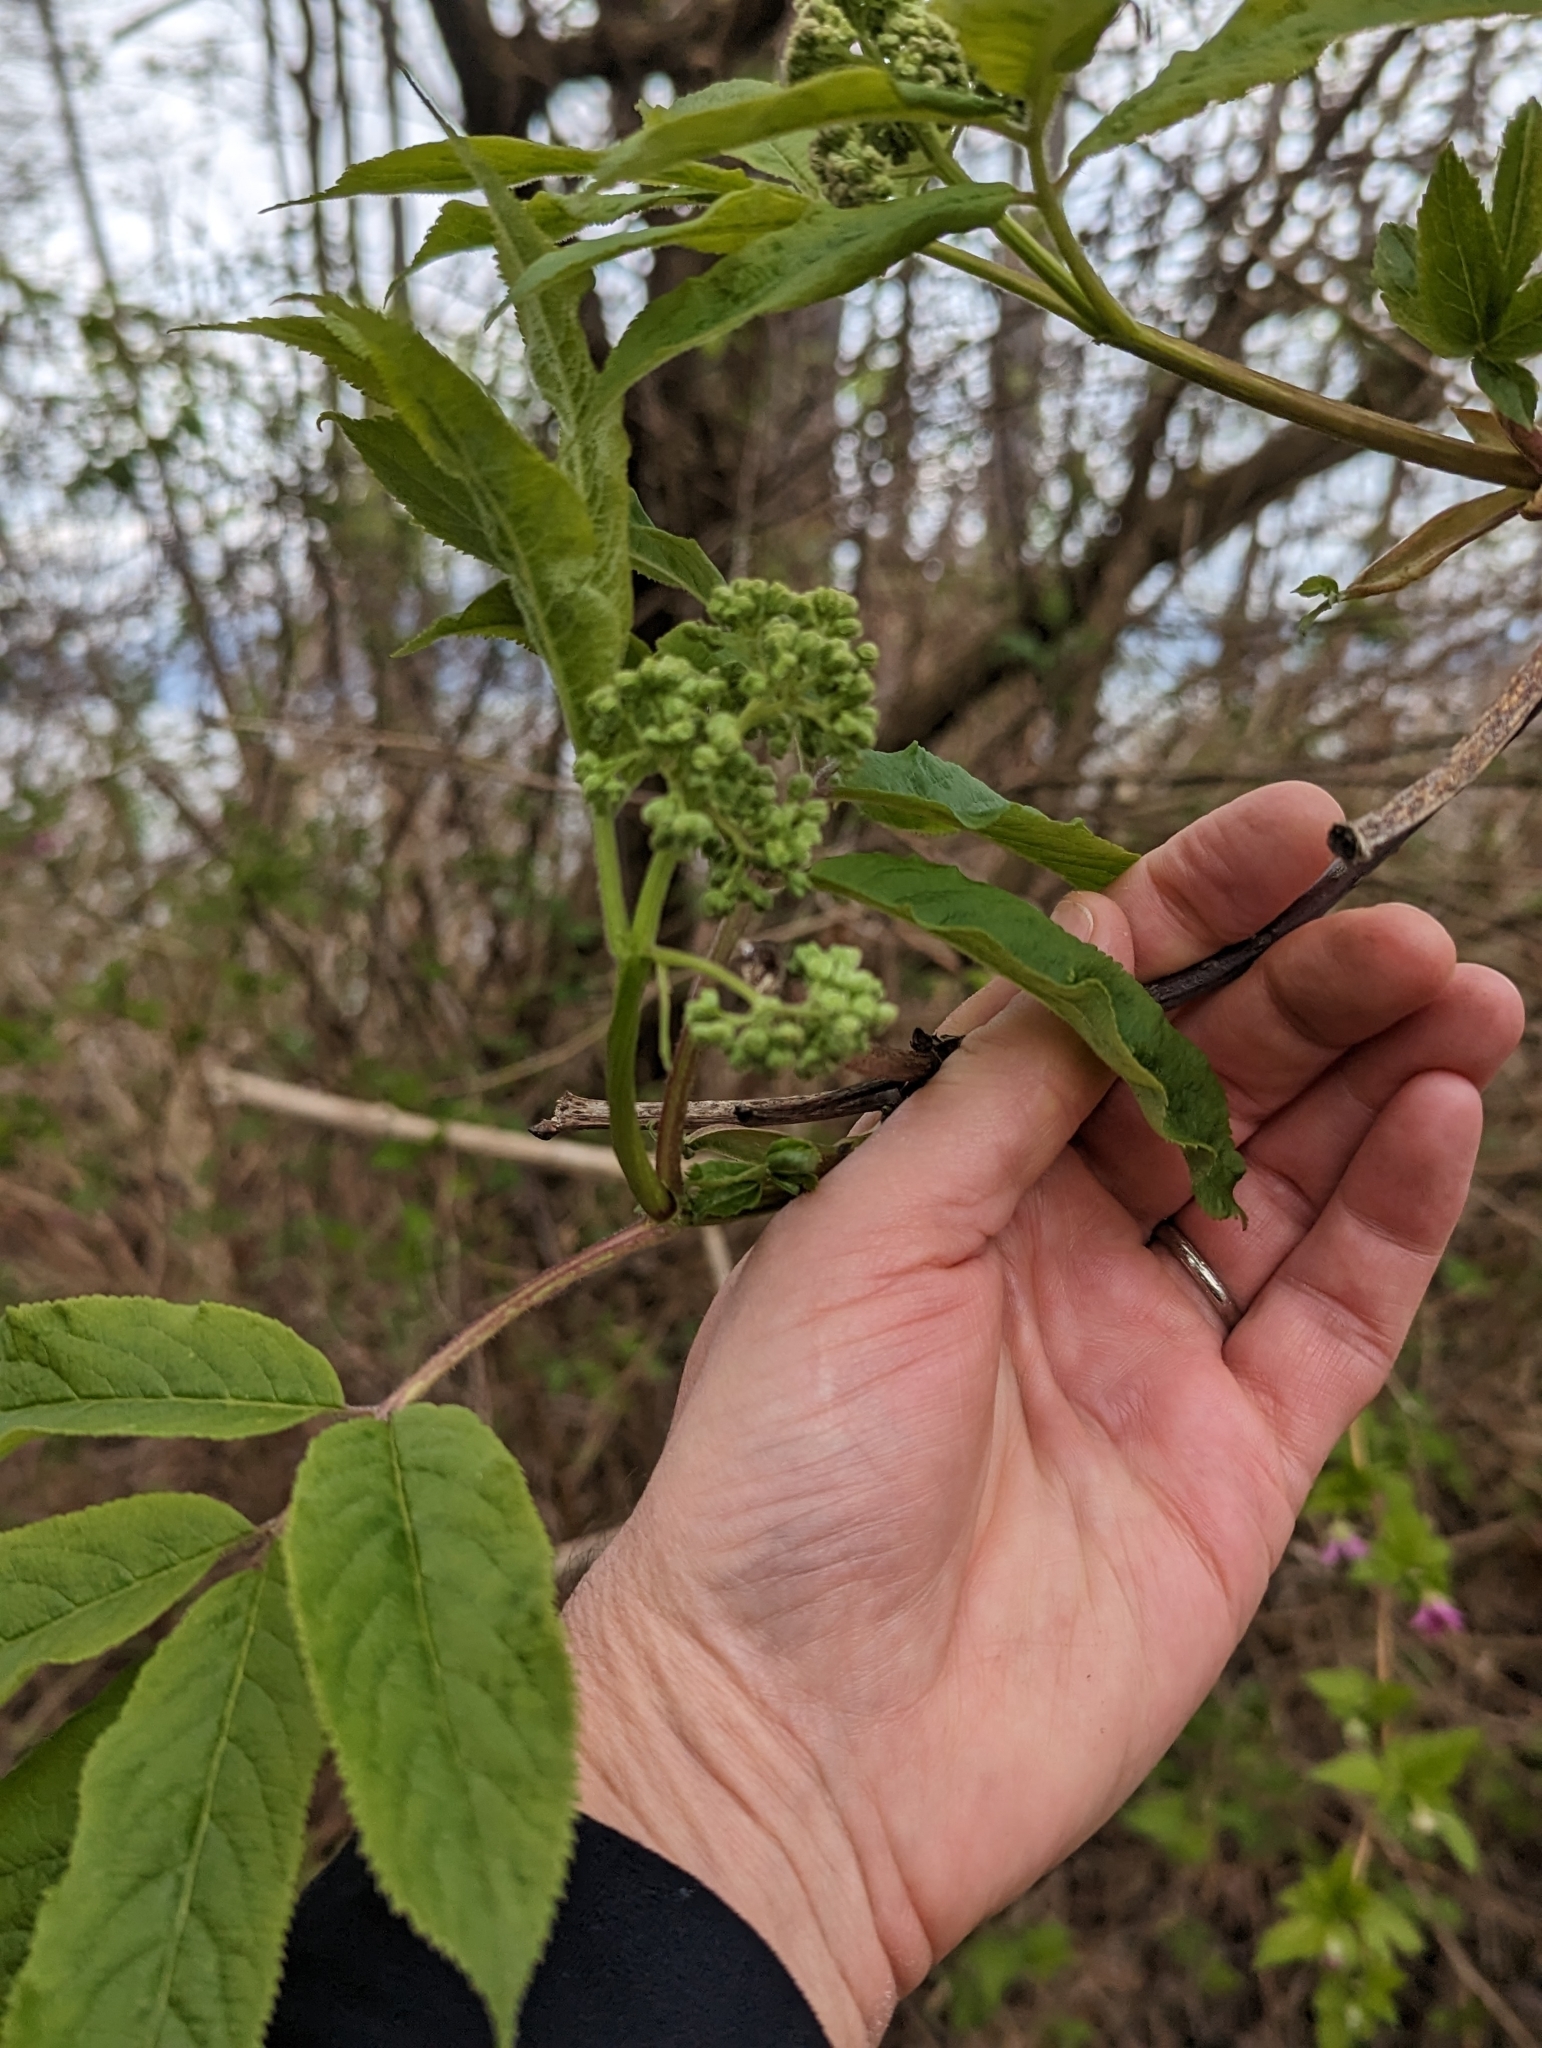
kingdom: Plantae
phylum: Tracheophyta
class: Magnoliopsida
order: Dipsacales
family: Viburnaceae
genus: Sambucus
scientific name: Sambucus racemosa
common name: Red-berried elder
